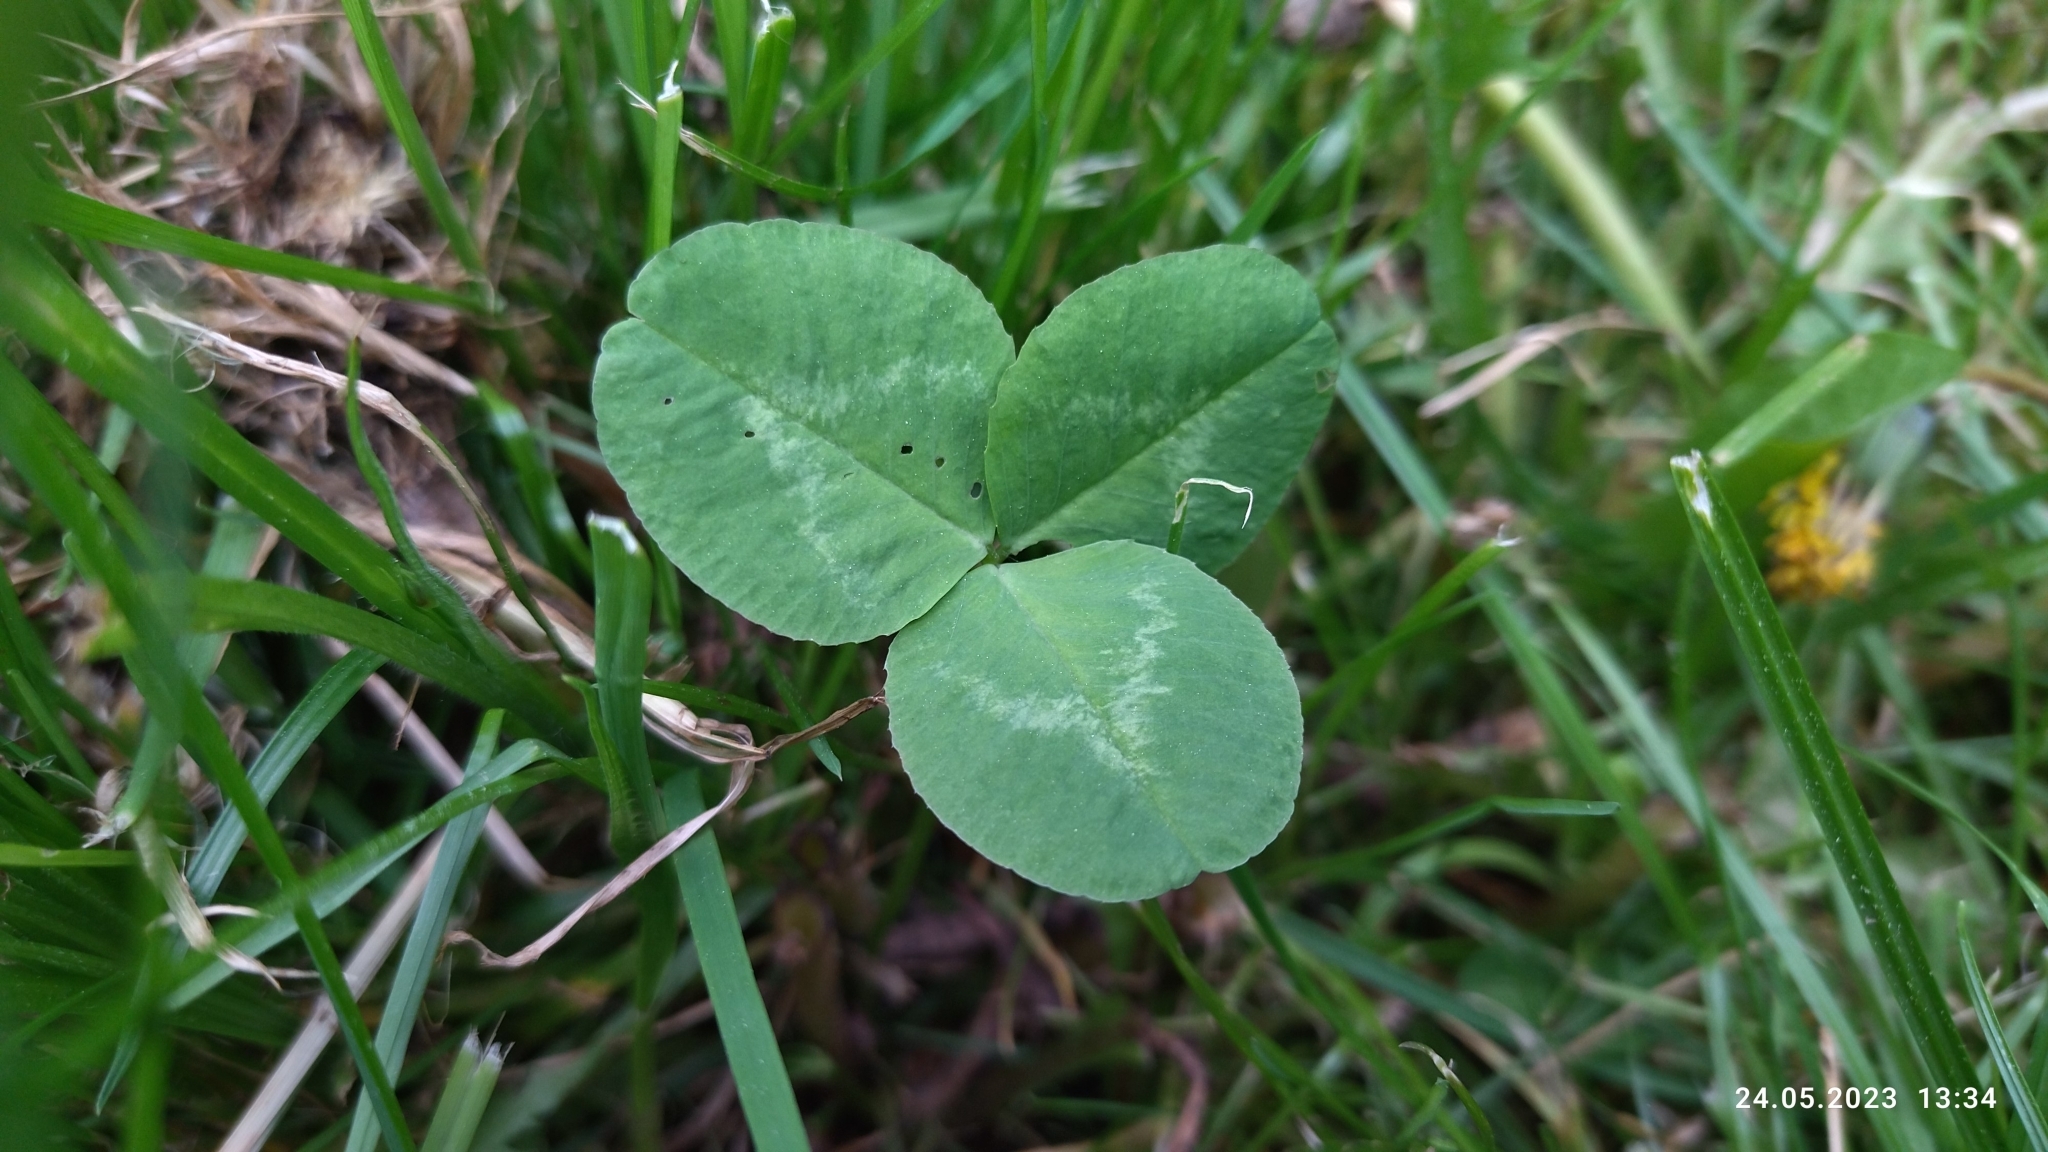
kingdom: Plantae
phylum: Tracheophyta
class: Magnoliopsida
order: Fabales
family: Fabaceae
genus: Trifolium
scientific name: Trifolium repens
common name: White clover
